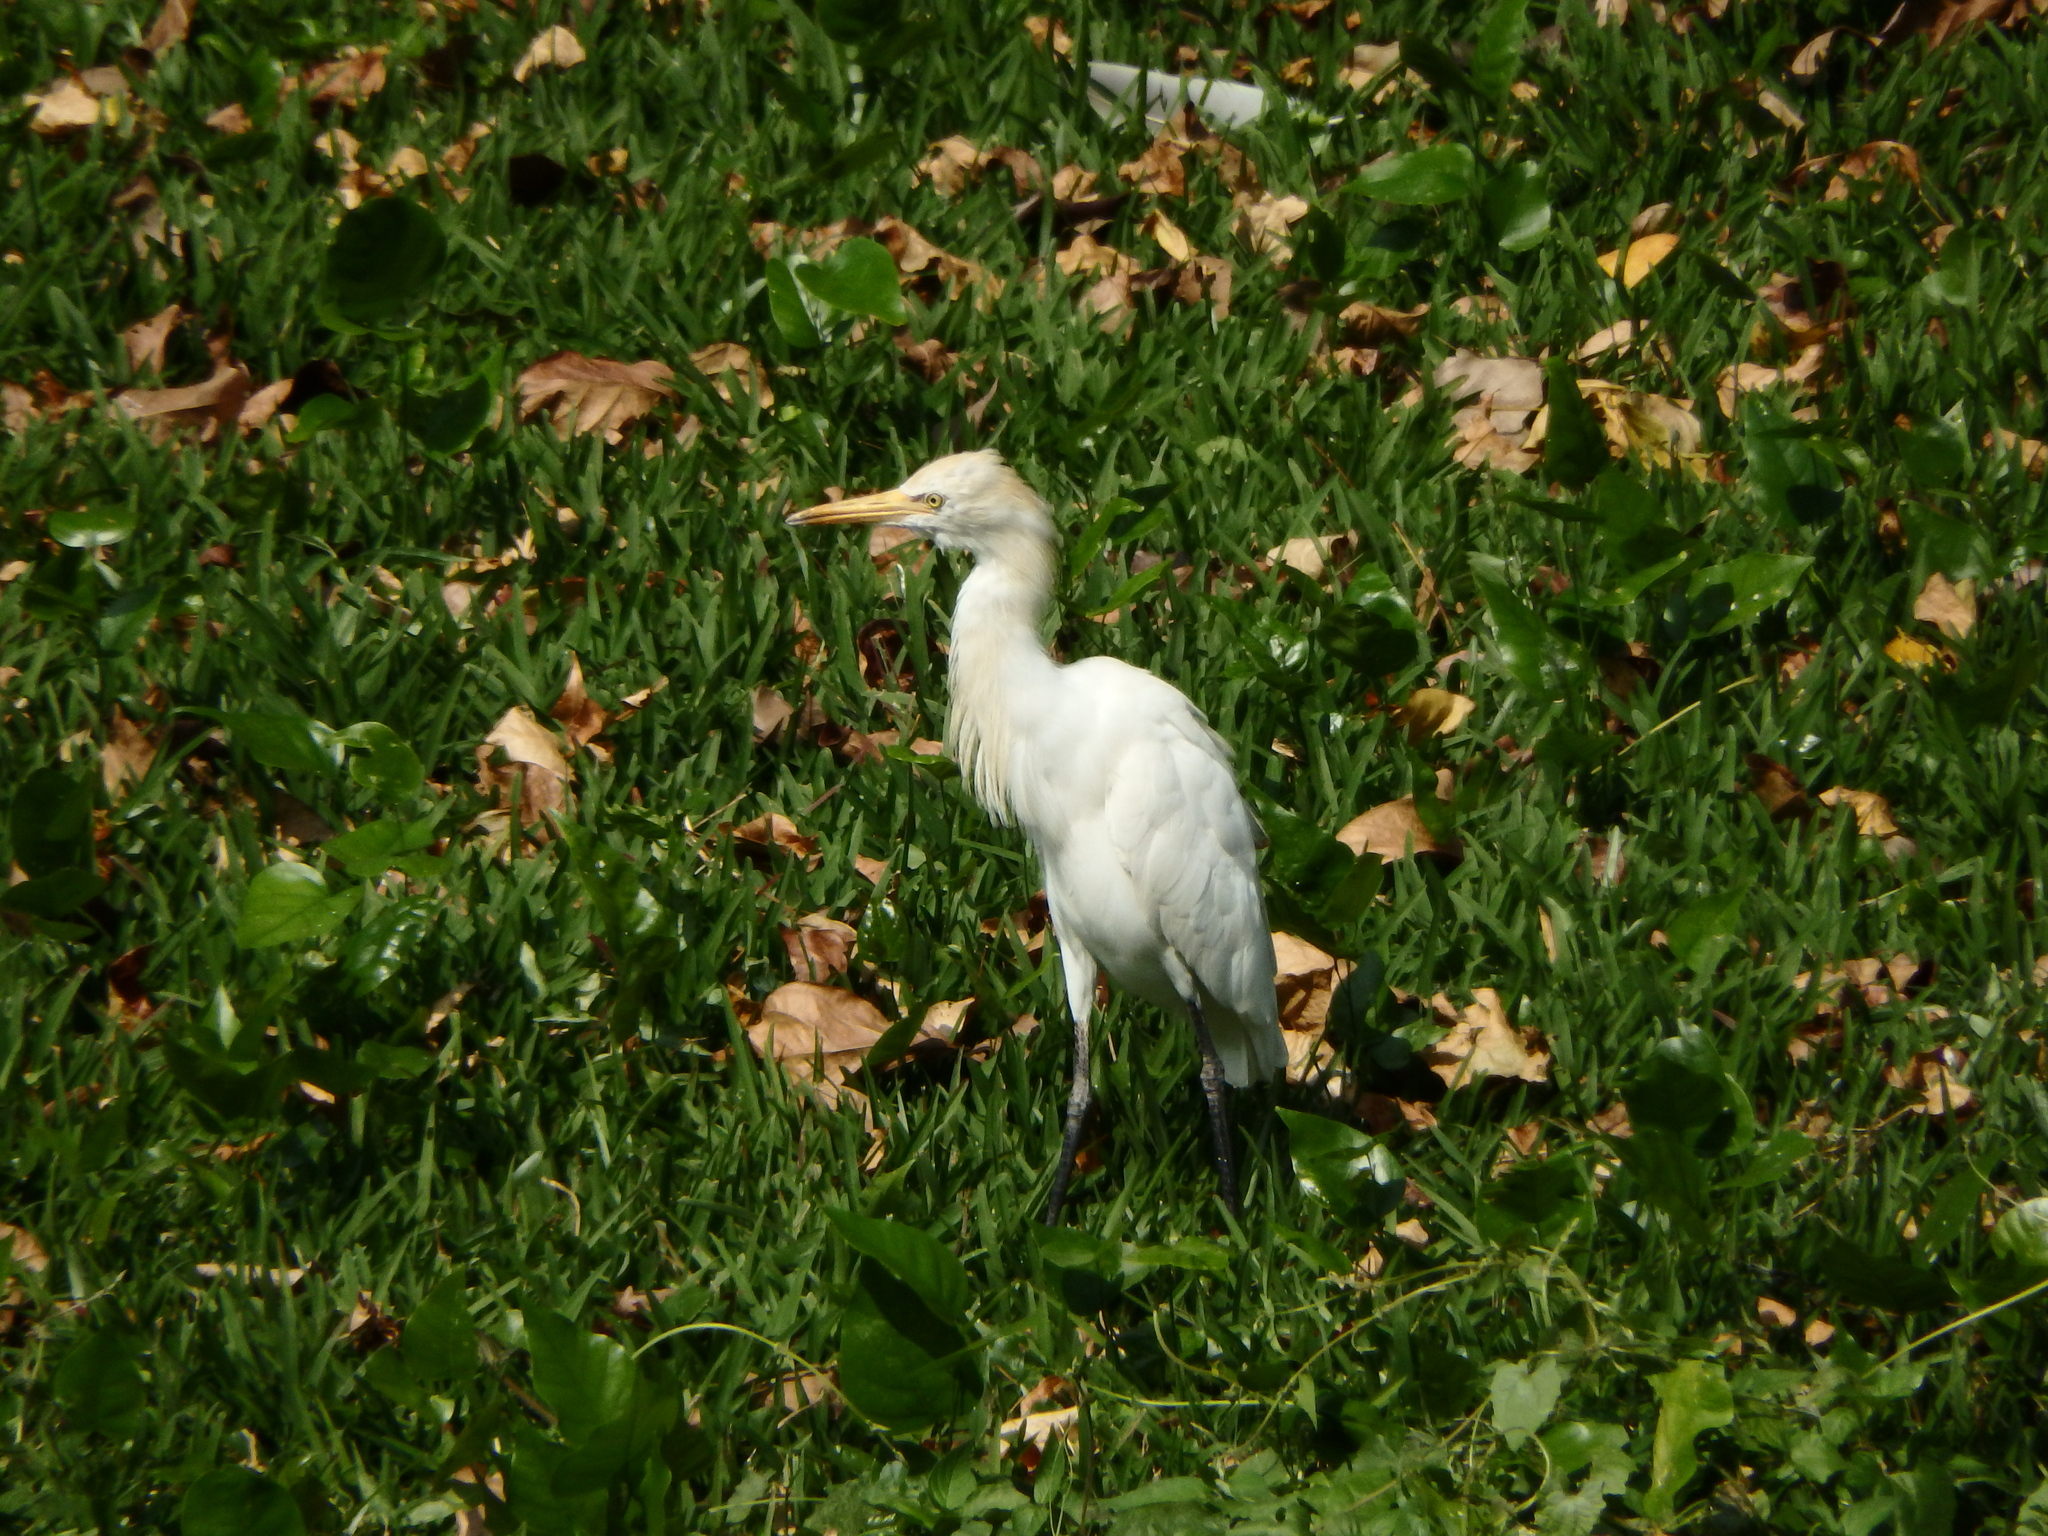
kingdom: Animalia
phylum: Chordata
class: Aves
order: Pelecaniformes
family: Ardeidae
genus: Bubulcus
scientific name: Bubulcus coromandus
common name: Eastern cattle egret
